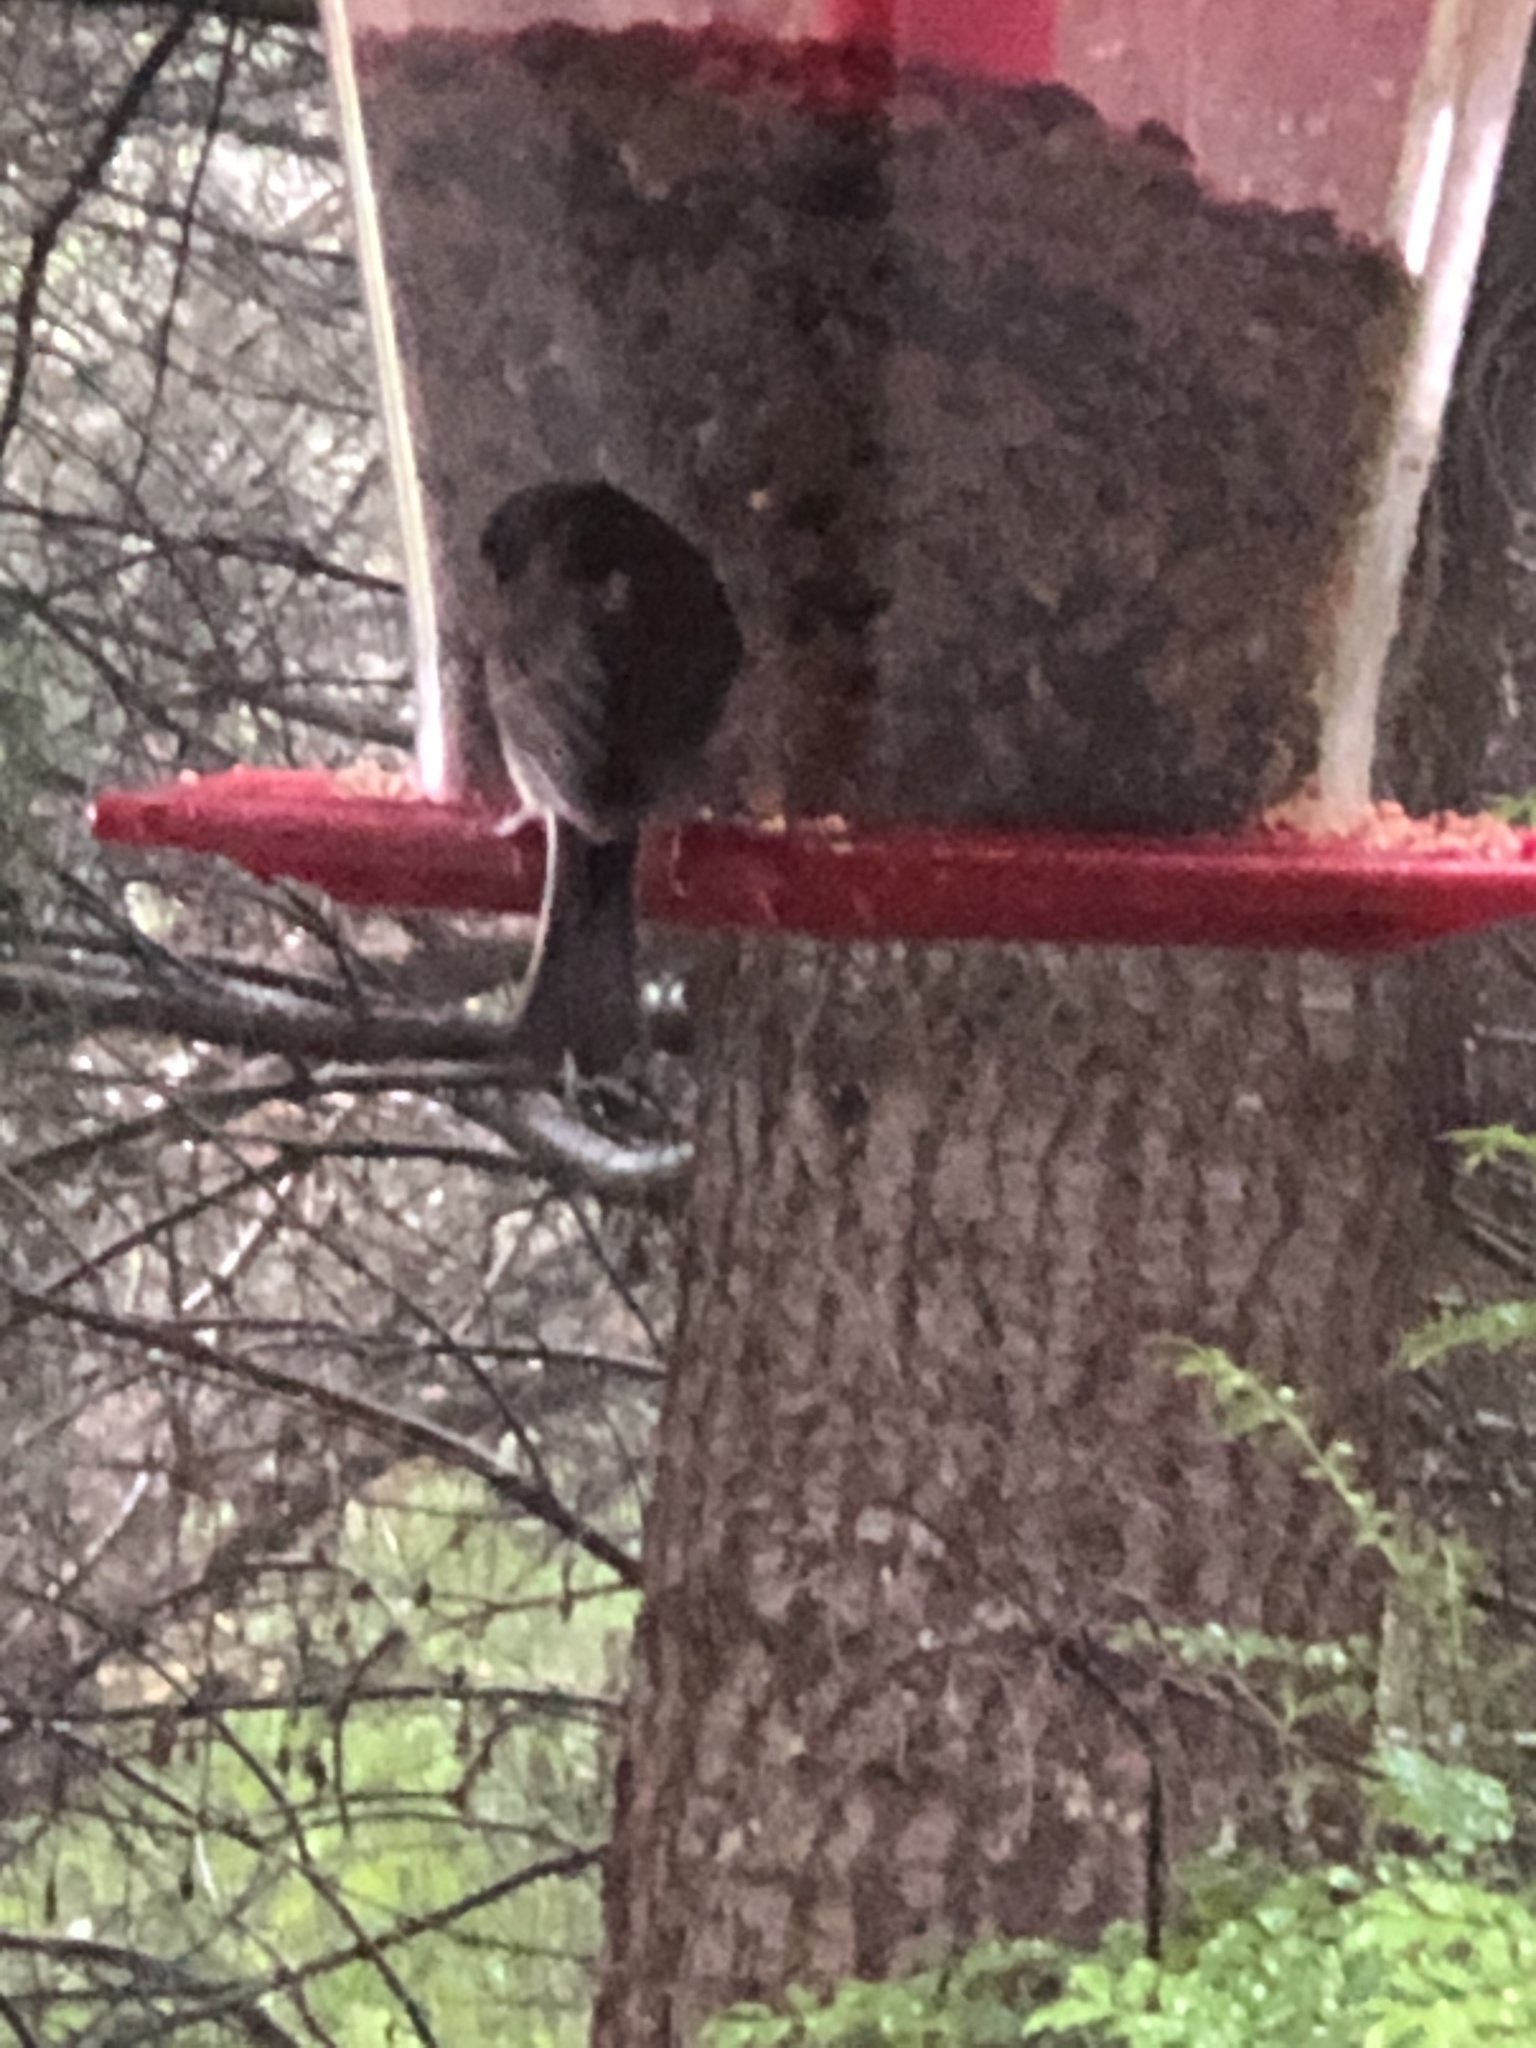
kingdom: Animalia
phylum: Chordata
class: Aves
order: Passeriformes
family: Passerellidae
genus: Junco
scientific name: Junco hyemalis
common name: Dark-eyed junco
